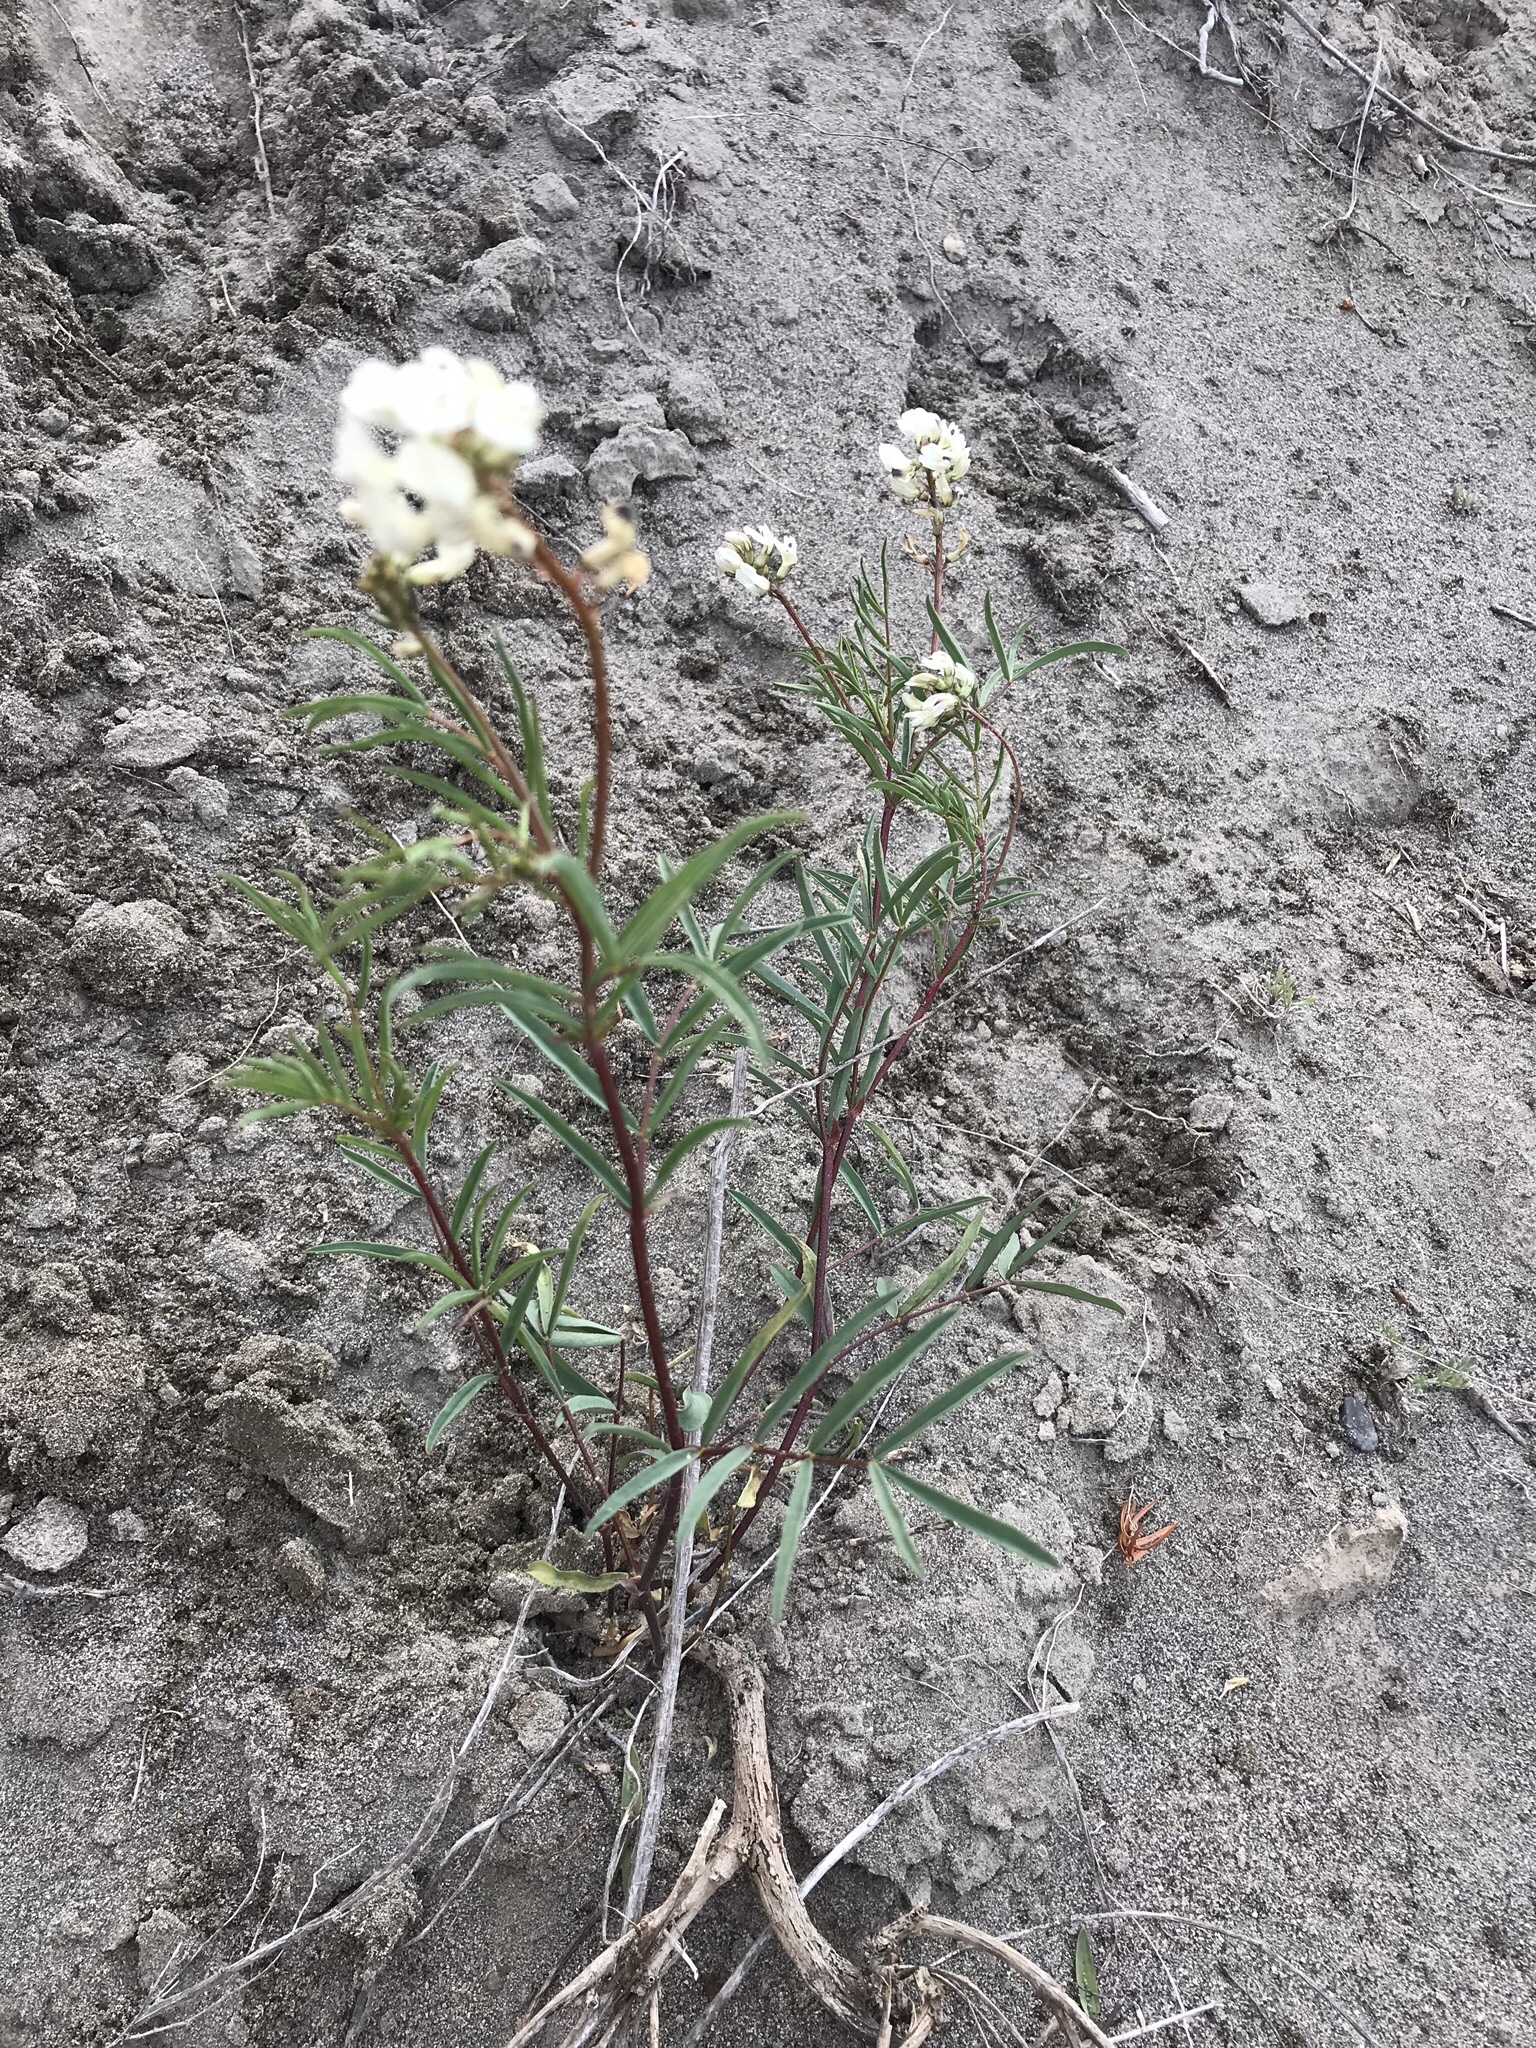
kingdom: Plantae
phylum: Tracheophyta
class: Magnoliopsida
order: Fabales
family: Fabaceae
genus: Astragalus
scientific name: Astragalus australis
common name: Indian milk-vetch
